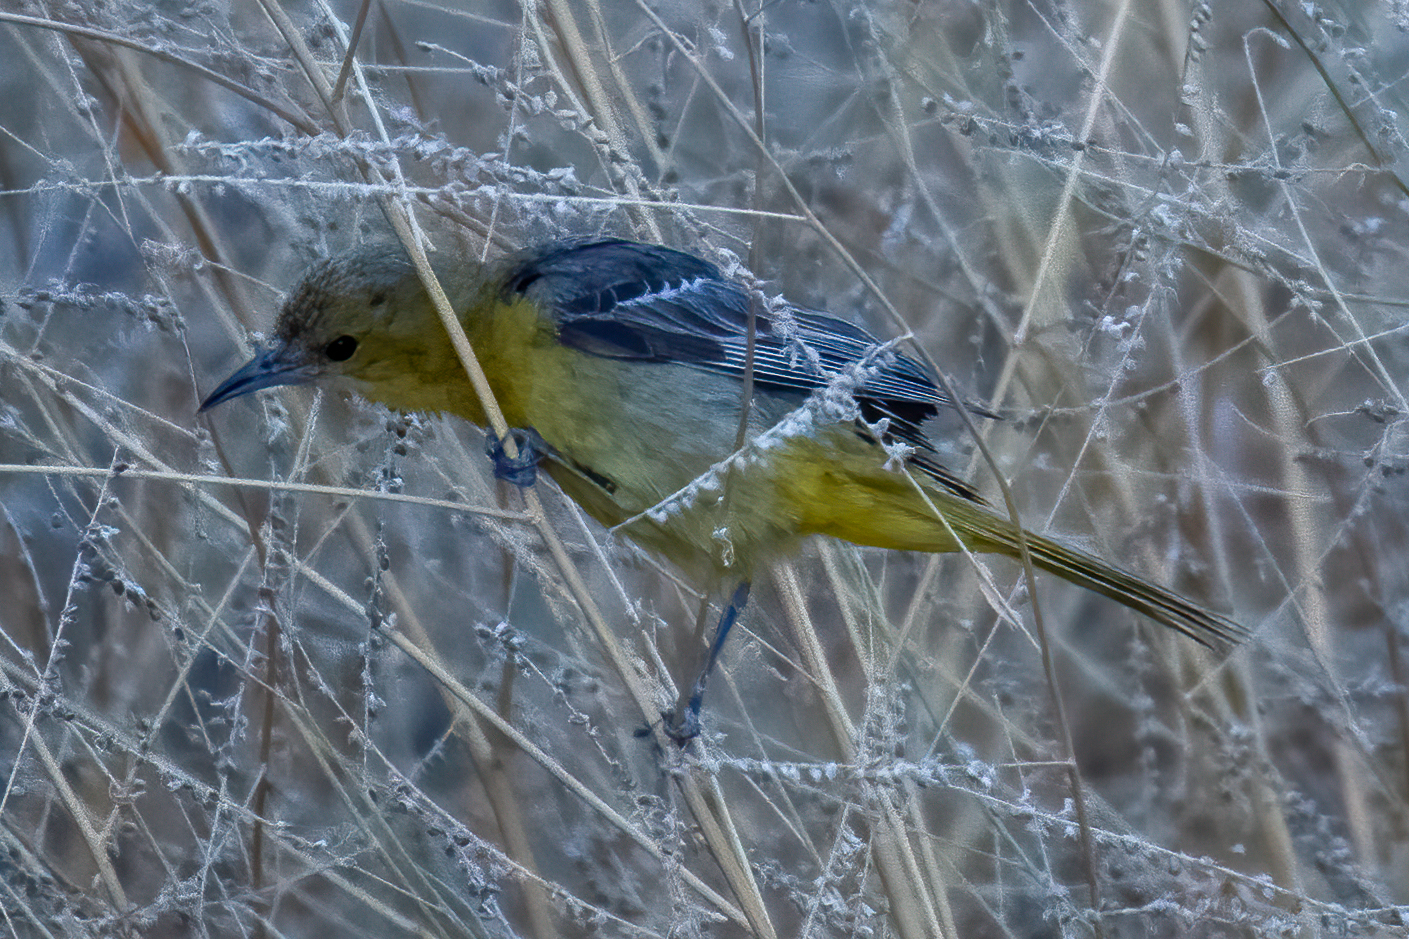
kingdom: Animalia
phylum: Chordata
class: Aves
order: Passeriformes
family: Icteridae
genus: Icterus
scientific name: Icterus cucullatus
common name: Hooded oriole
